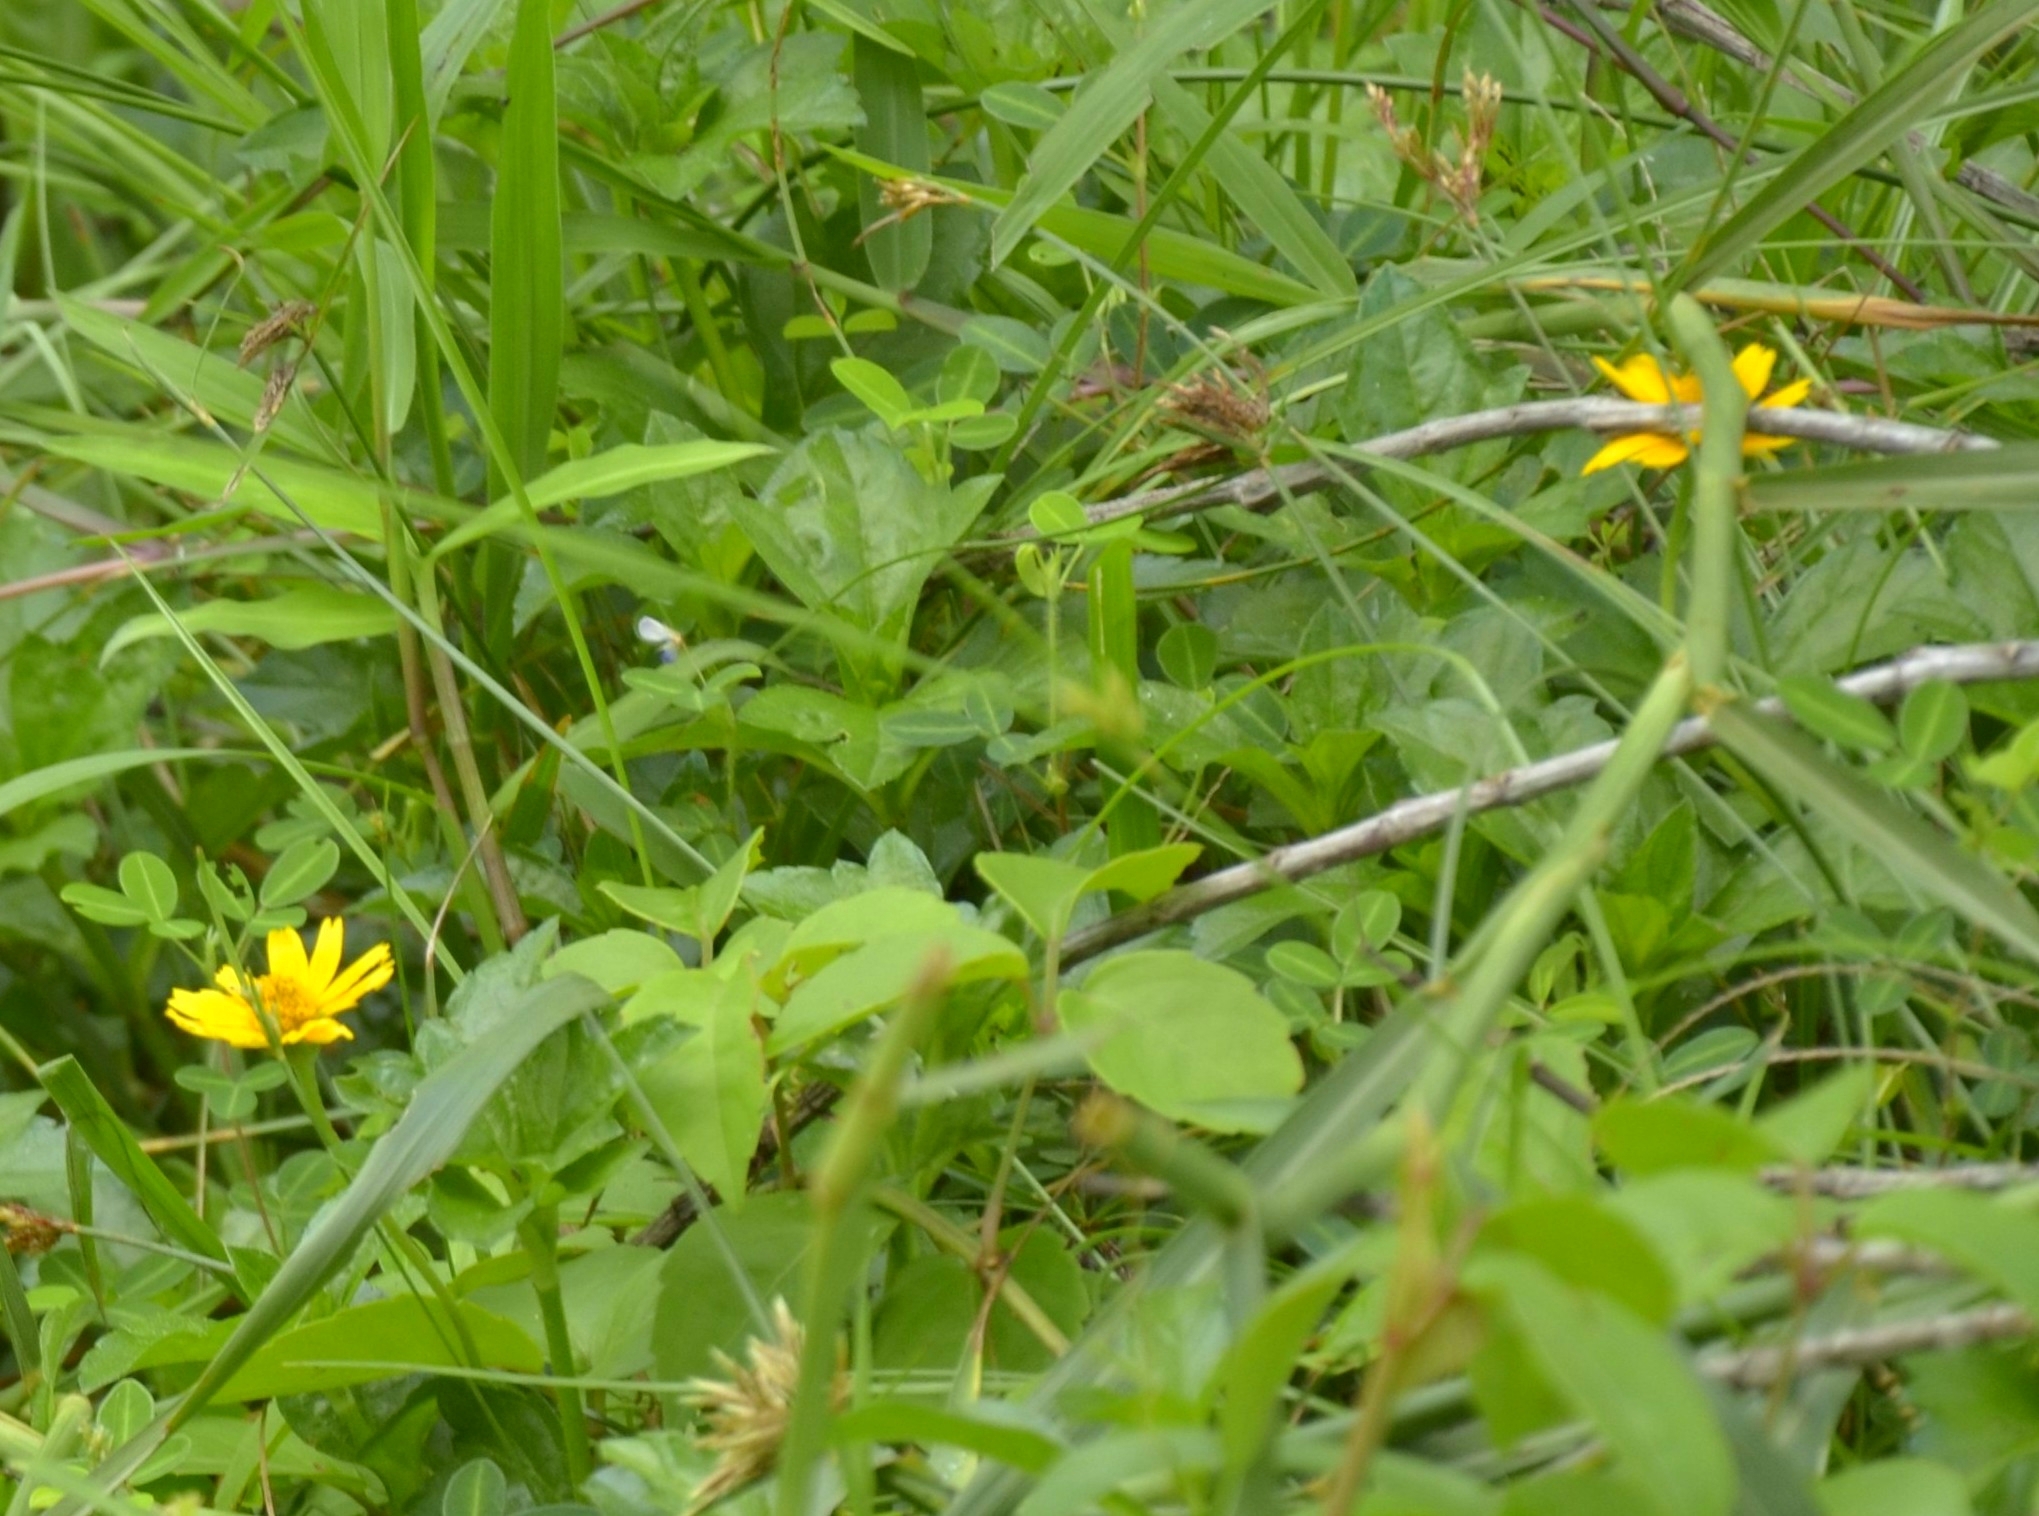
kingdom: Plantae
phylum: Tracheophyta
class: Magnoliopsida
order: Asterales
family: Asteraceae
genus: Sphagneticola
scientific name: Sphagneticola trilobata
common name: Bay biscayne creeping-oxeye
